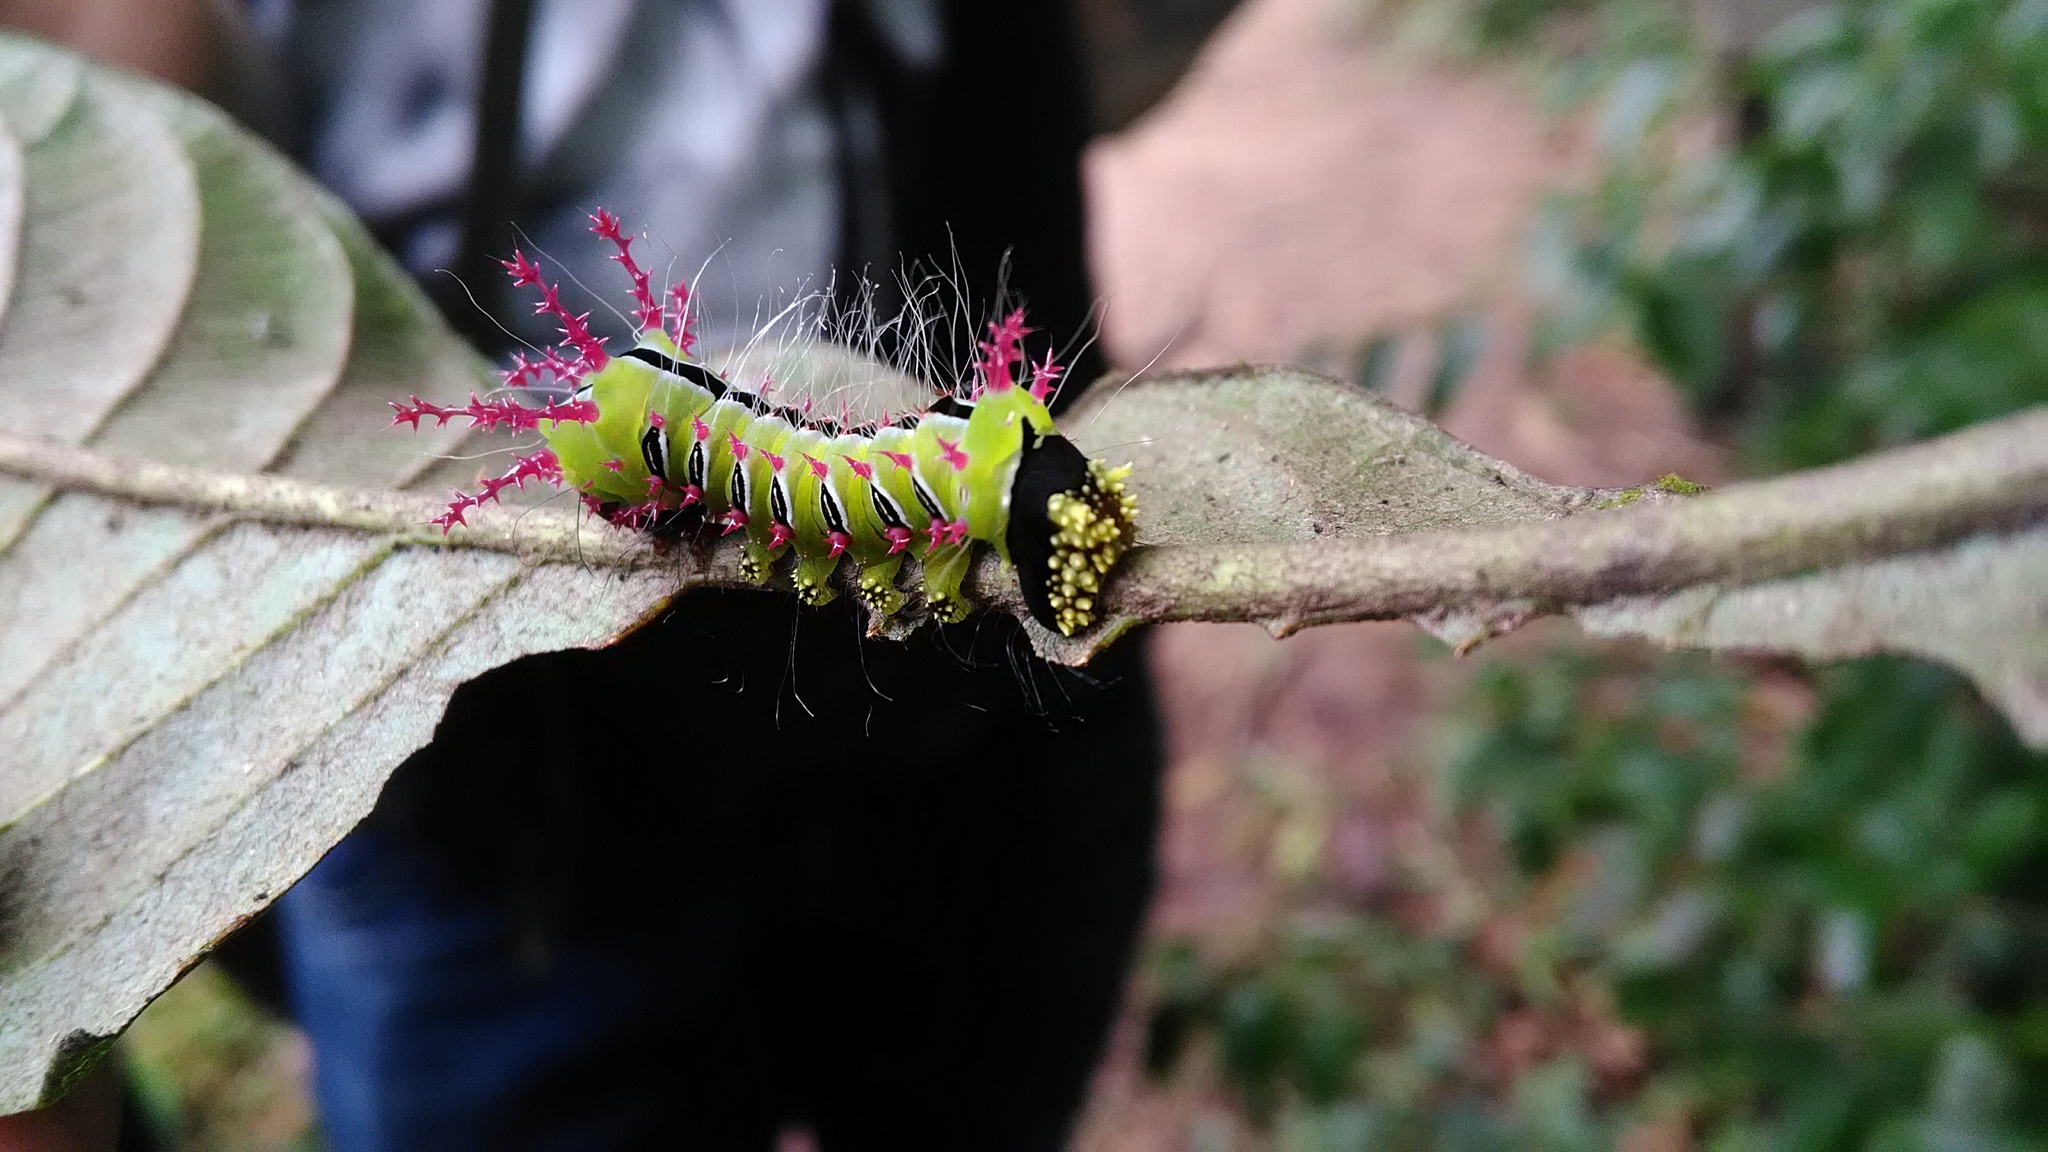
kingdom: Animalia
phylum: Arthropoda
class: Insecta
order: Lepidoptera
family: Saturniidae
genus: Eacles
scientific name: Eacles ducalis
